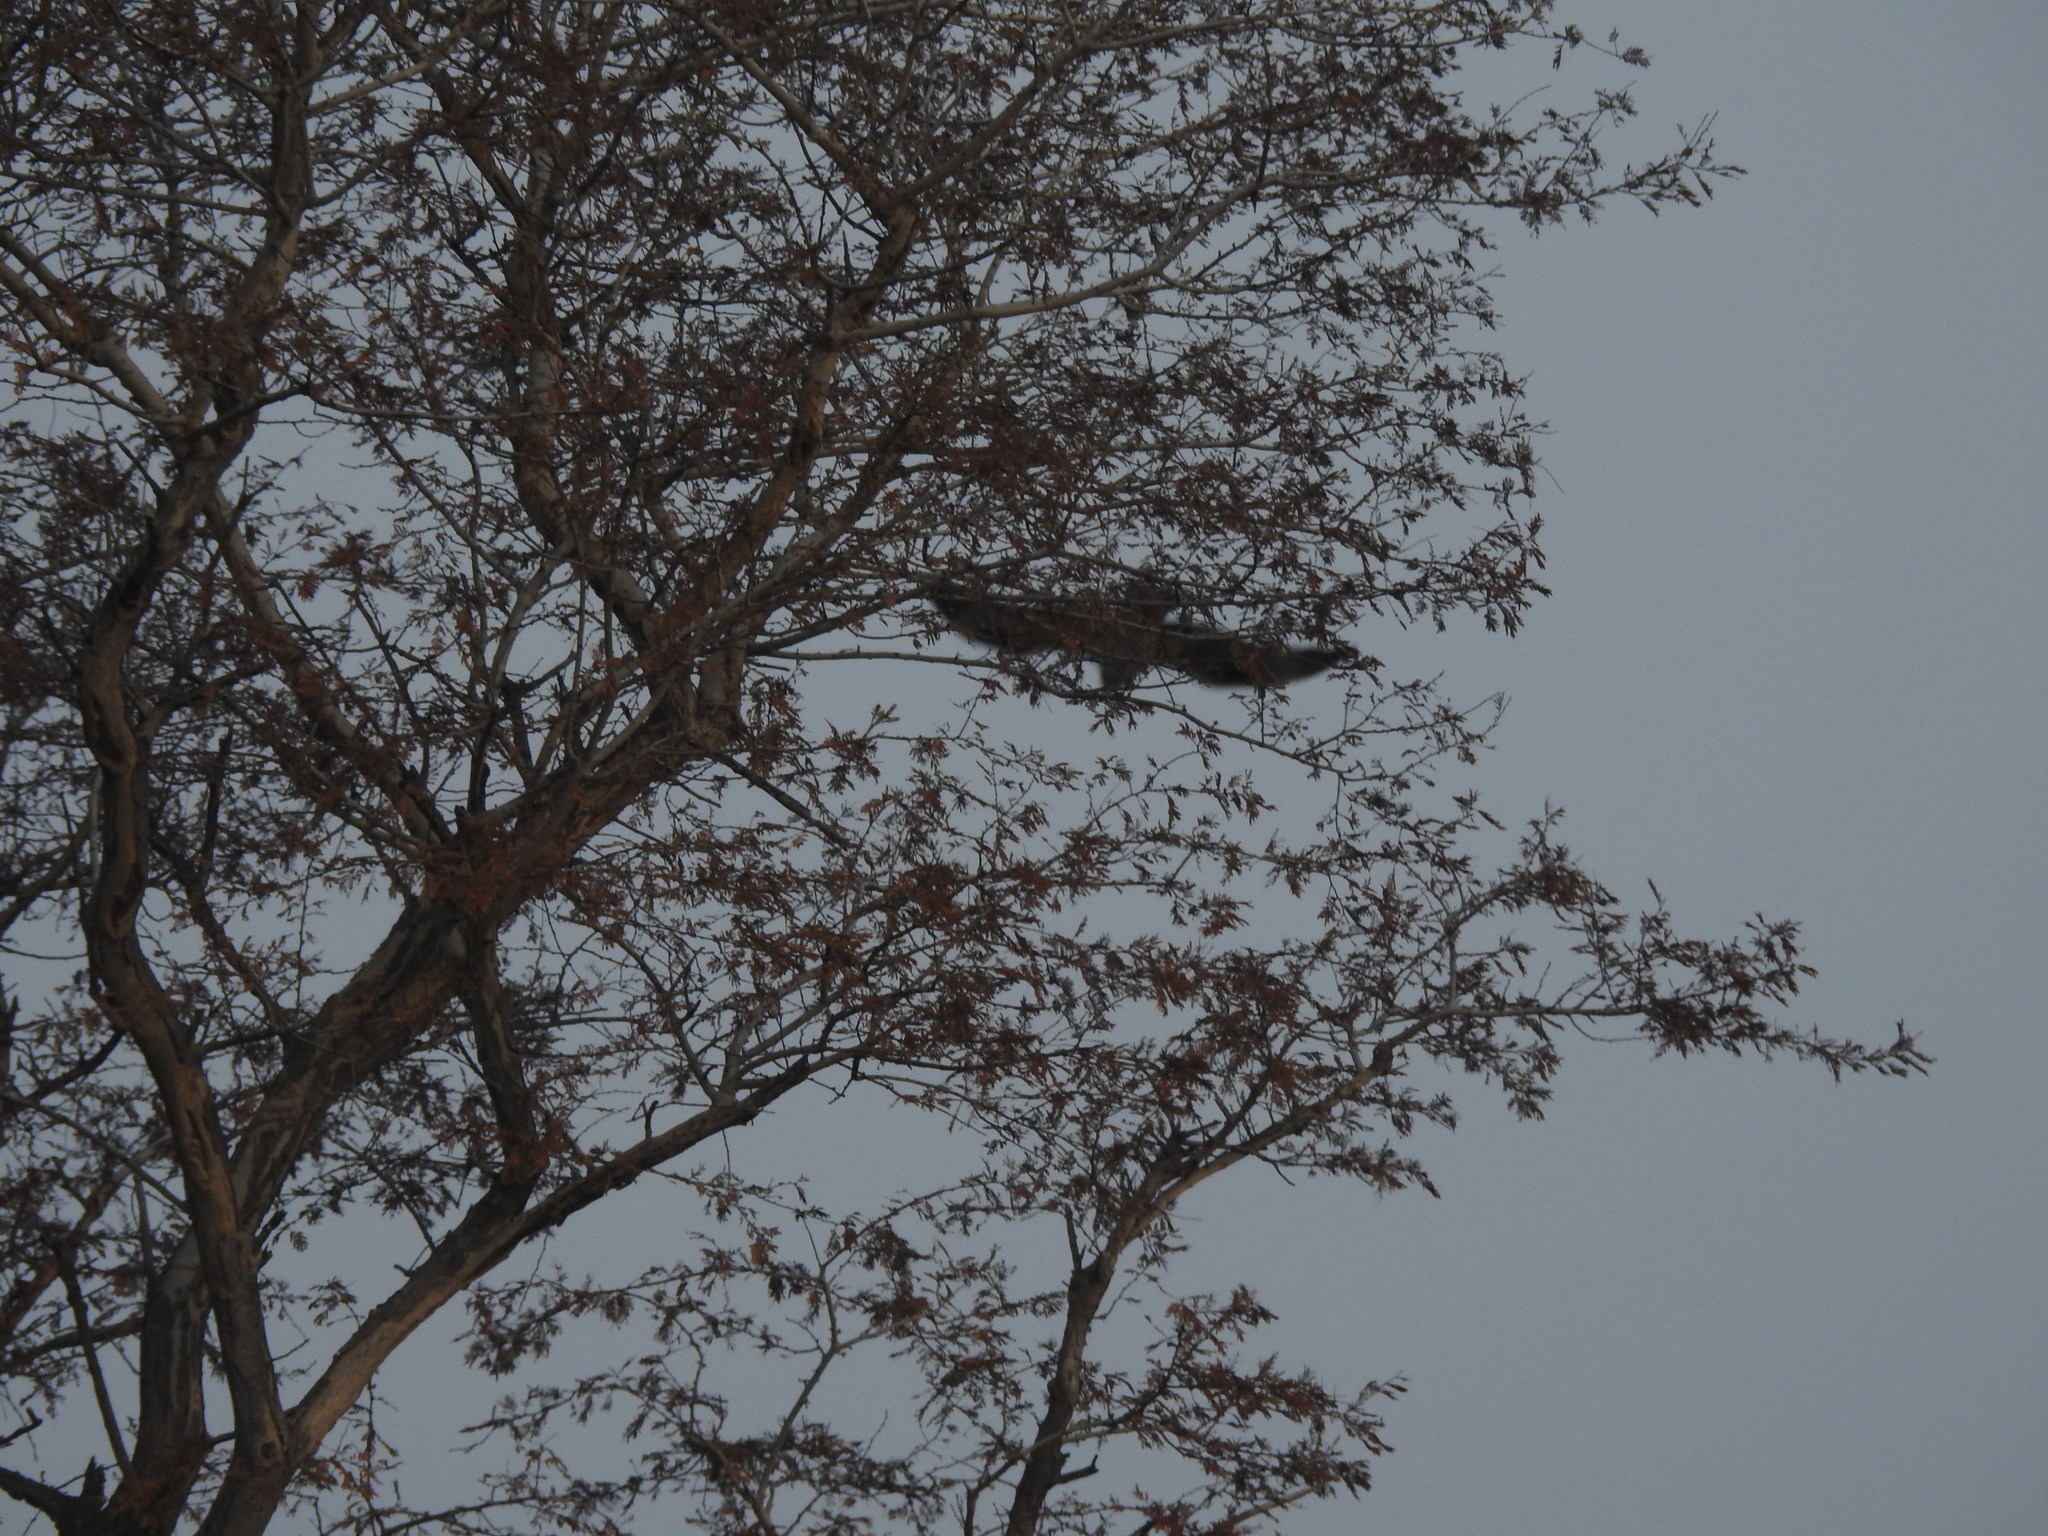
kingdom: Animalia
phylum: Chordata
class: Aves
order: Accipitriformes
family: Accipitridae
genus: Aquila
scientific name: Aquila fasciata
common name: Bonelli's eagle
